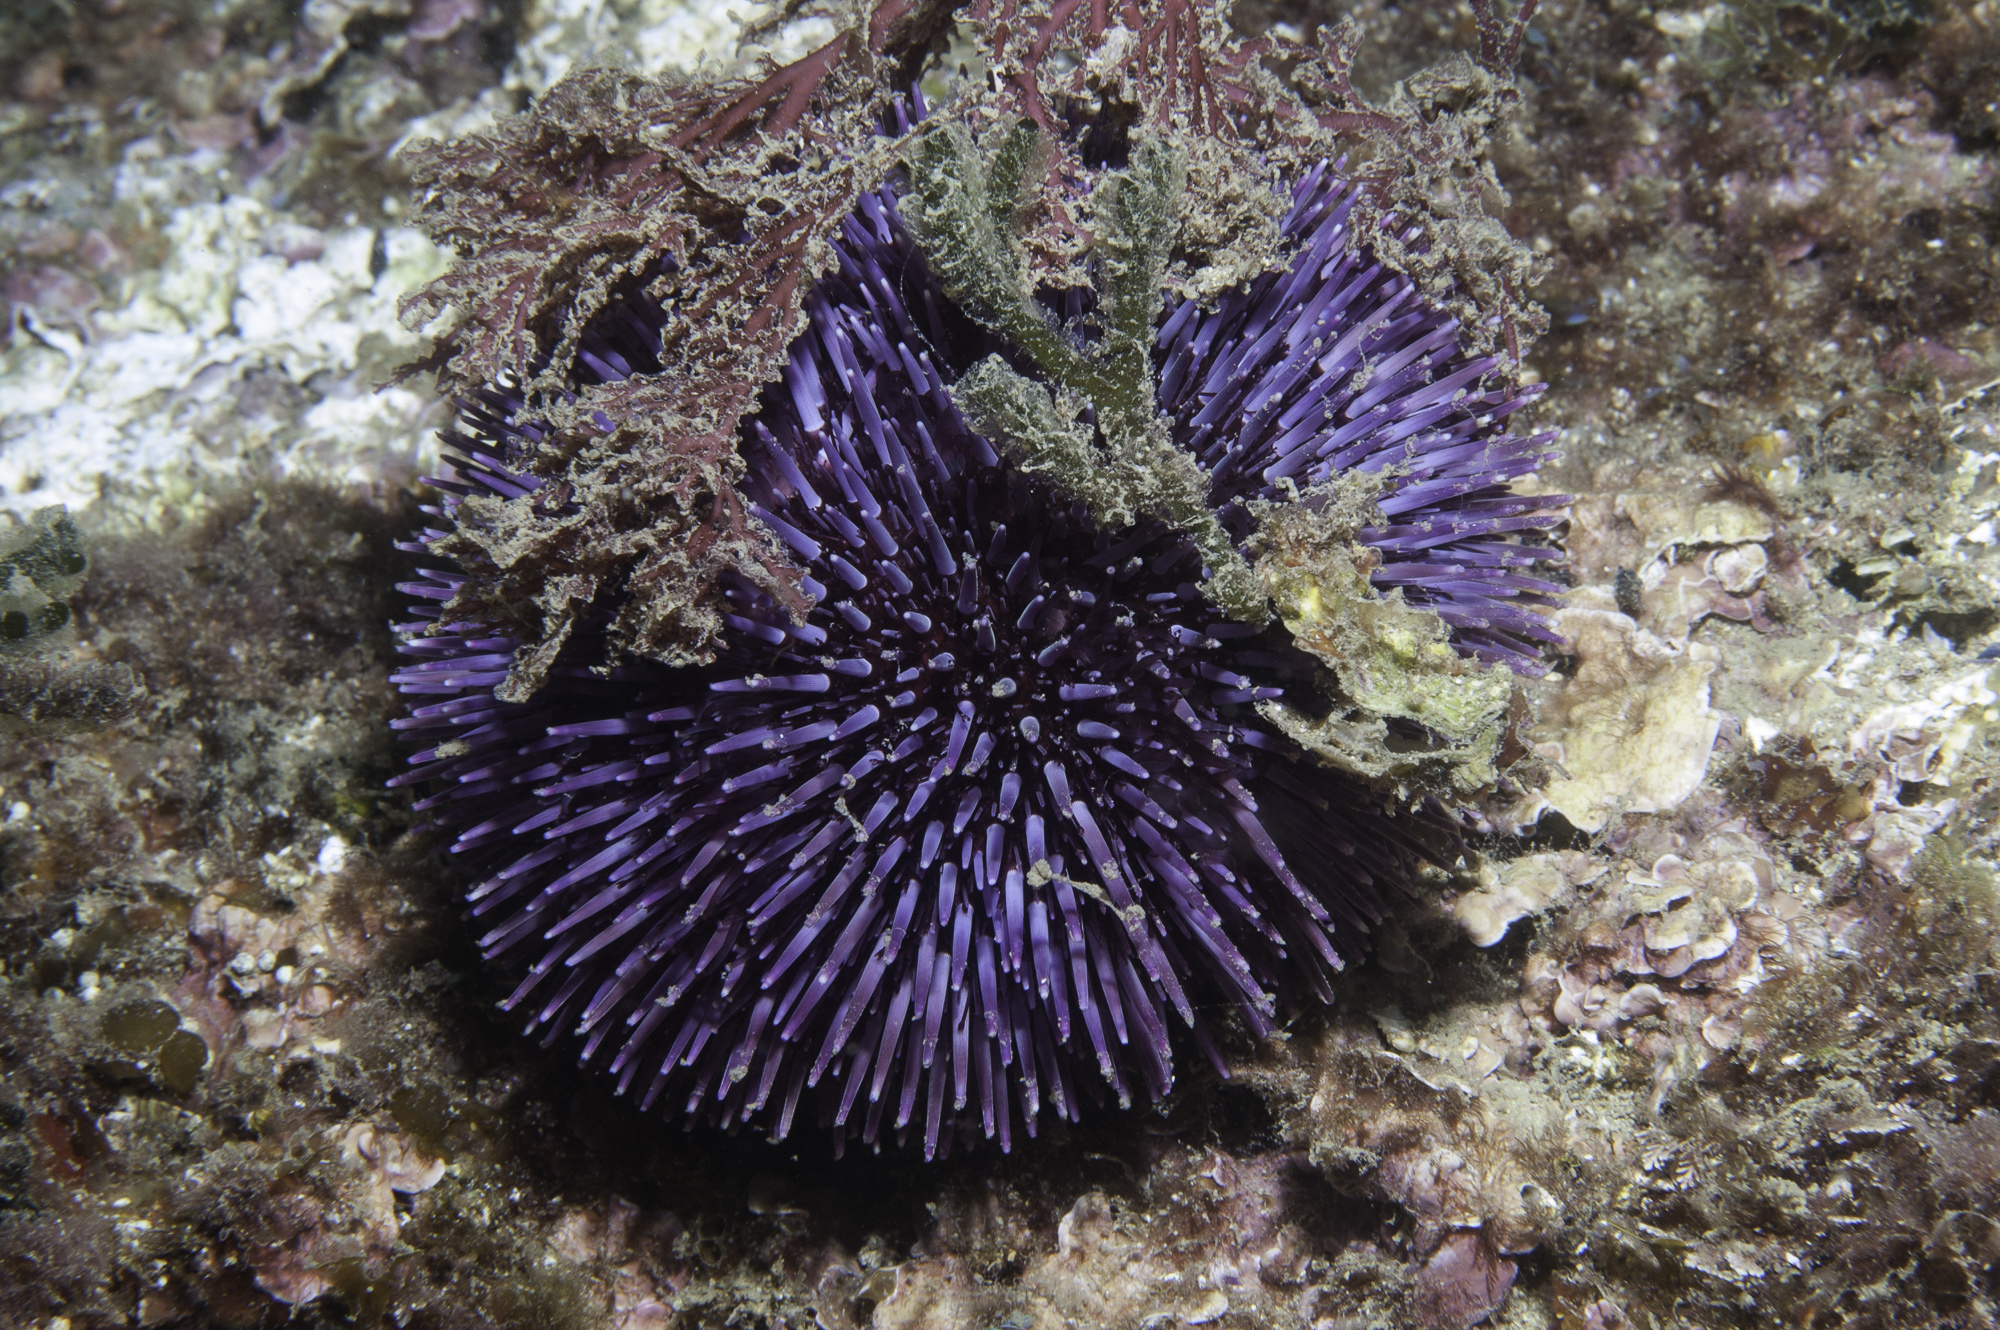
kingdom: Animalia
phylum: Echinodermata
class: Echinoidea
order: Camarodonta
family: Toxopneustidae
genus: Sphaerechinus
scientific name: Sphaerechinus granularis
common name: Violet sea urchin
